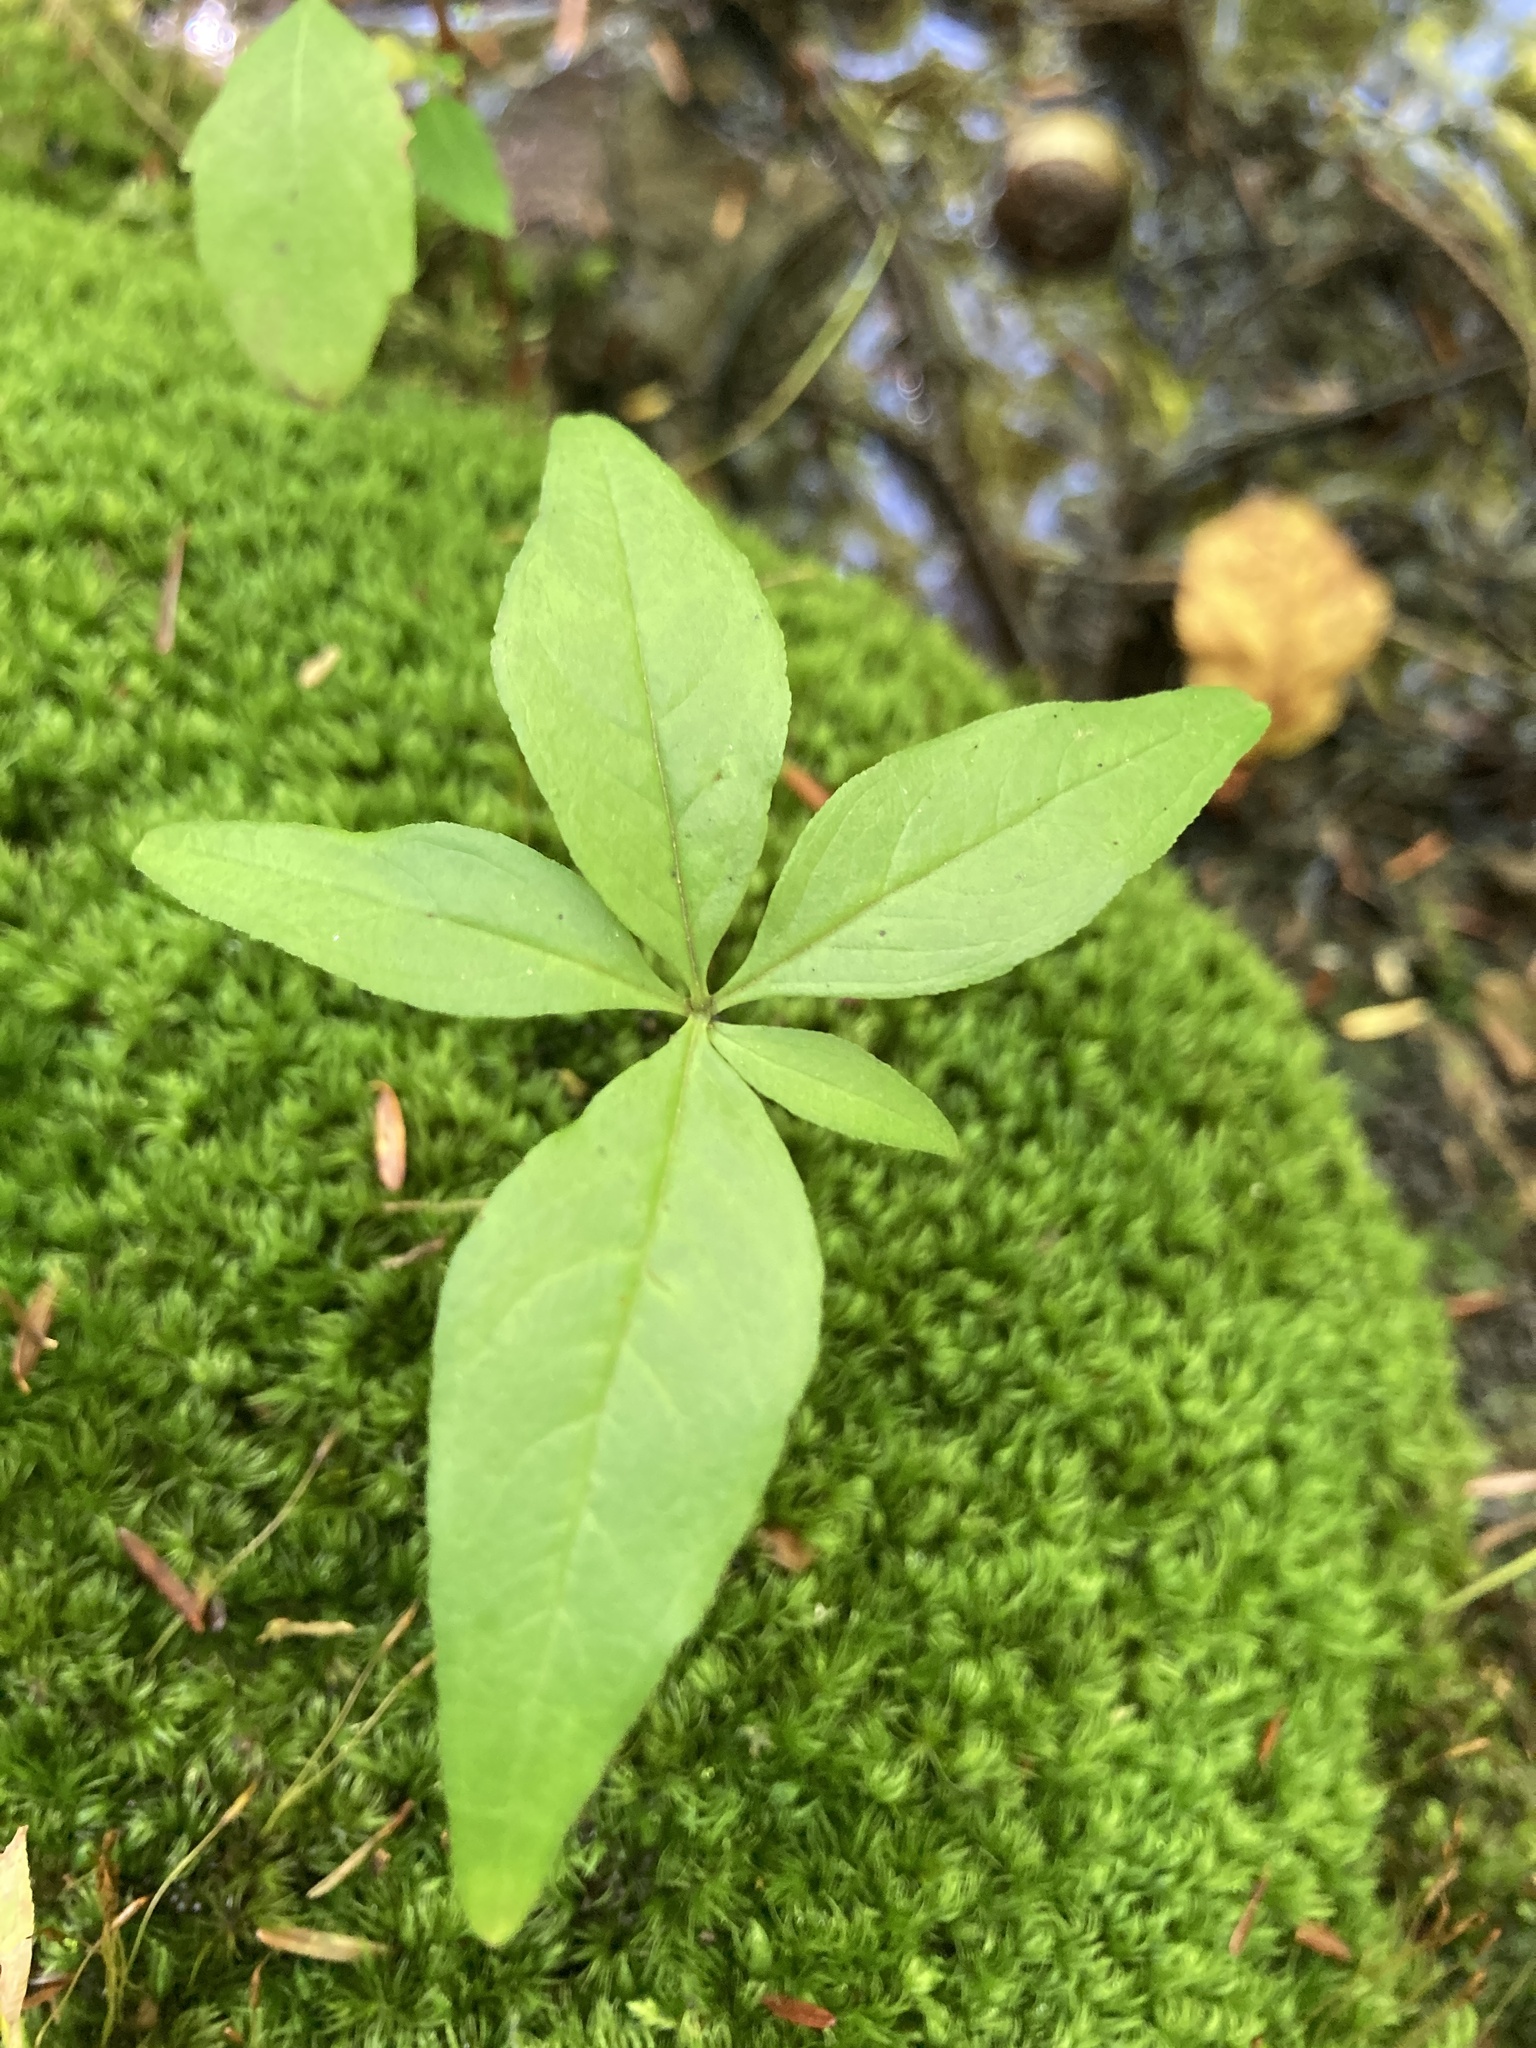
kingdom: Plantae
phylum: Tracheophyta
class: Magnoliopsida
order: Ericales
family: Primulaceae
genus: Lysimachia
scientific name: Lysimachia borealis
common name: American starflower
